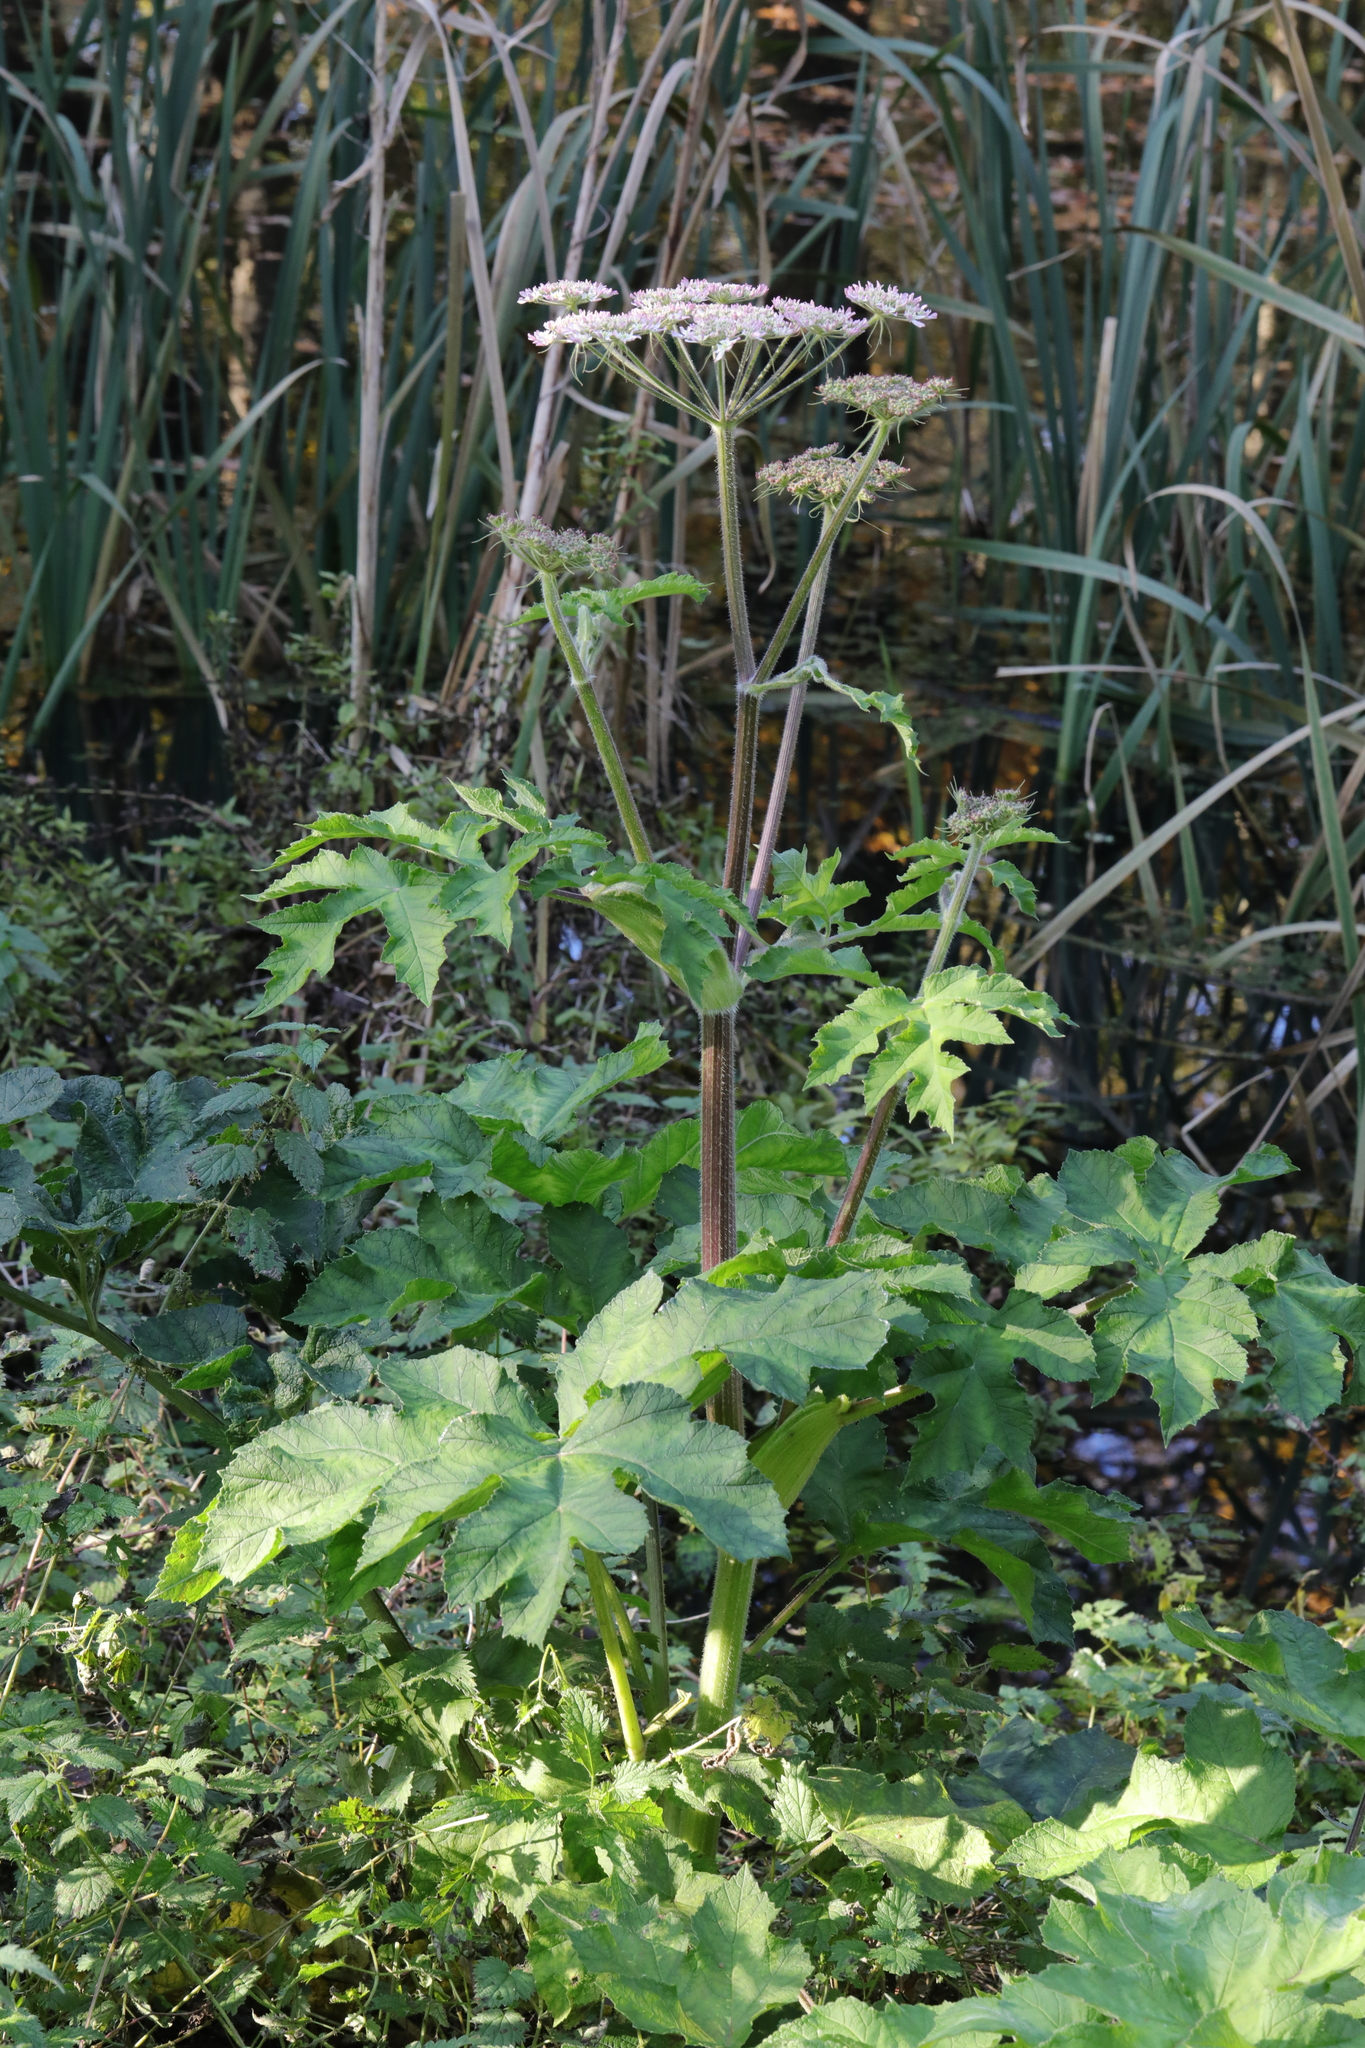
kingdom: Plantae
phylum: Tracheophyta
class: Magnoliopsida
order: Apiales
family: Apiaceae
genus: Heracleum
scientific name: Heracleum sphondylium
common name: Hogweed
